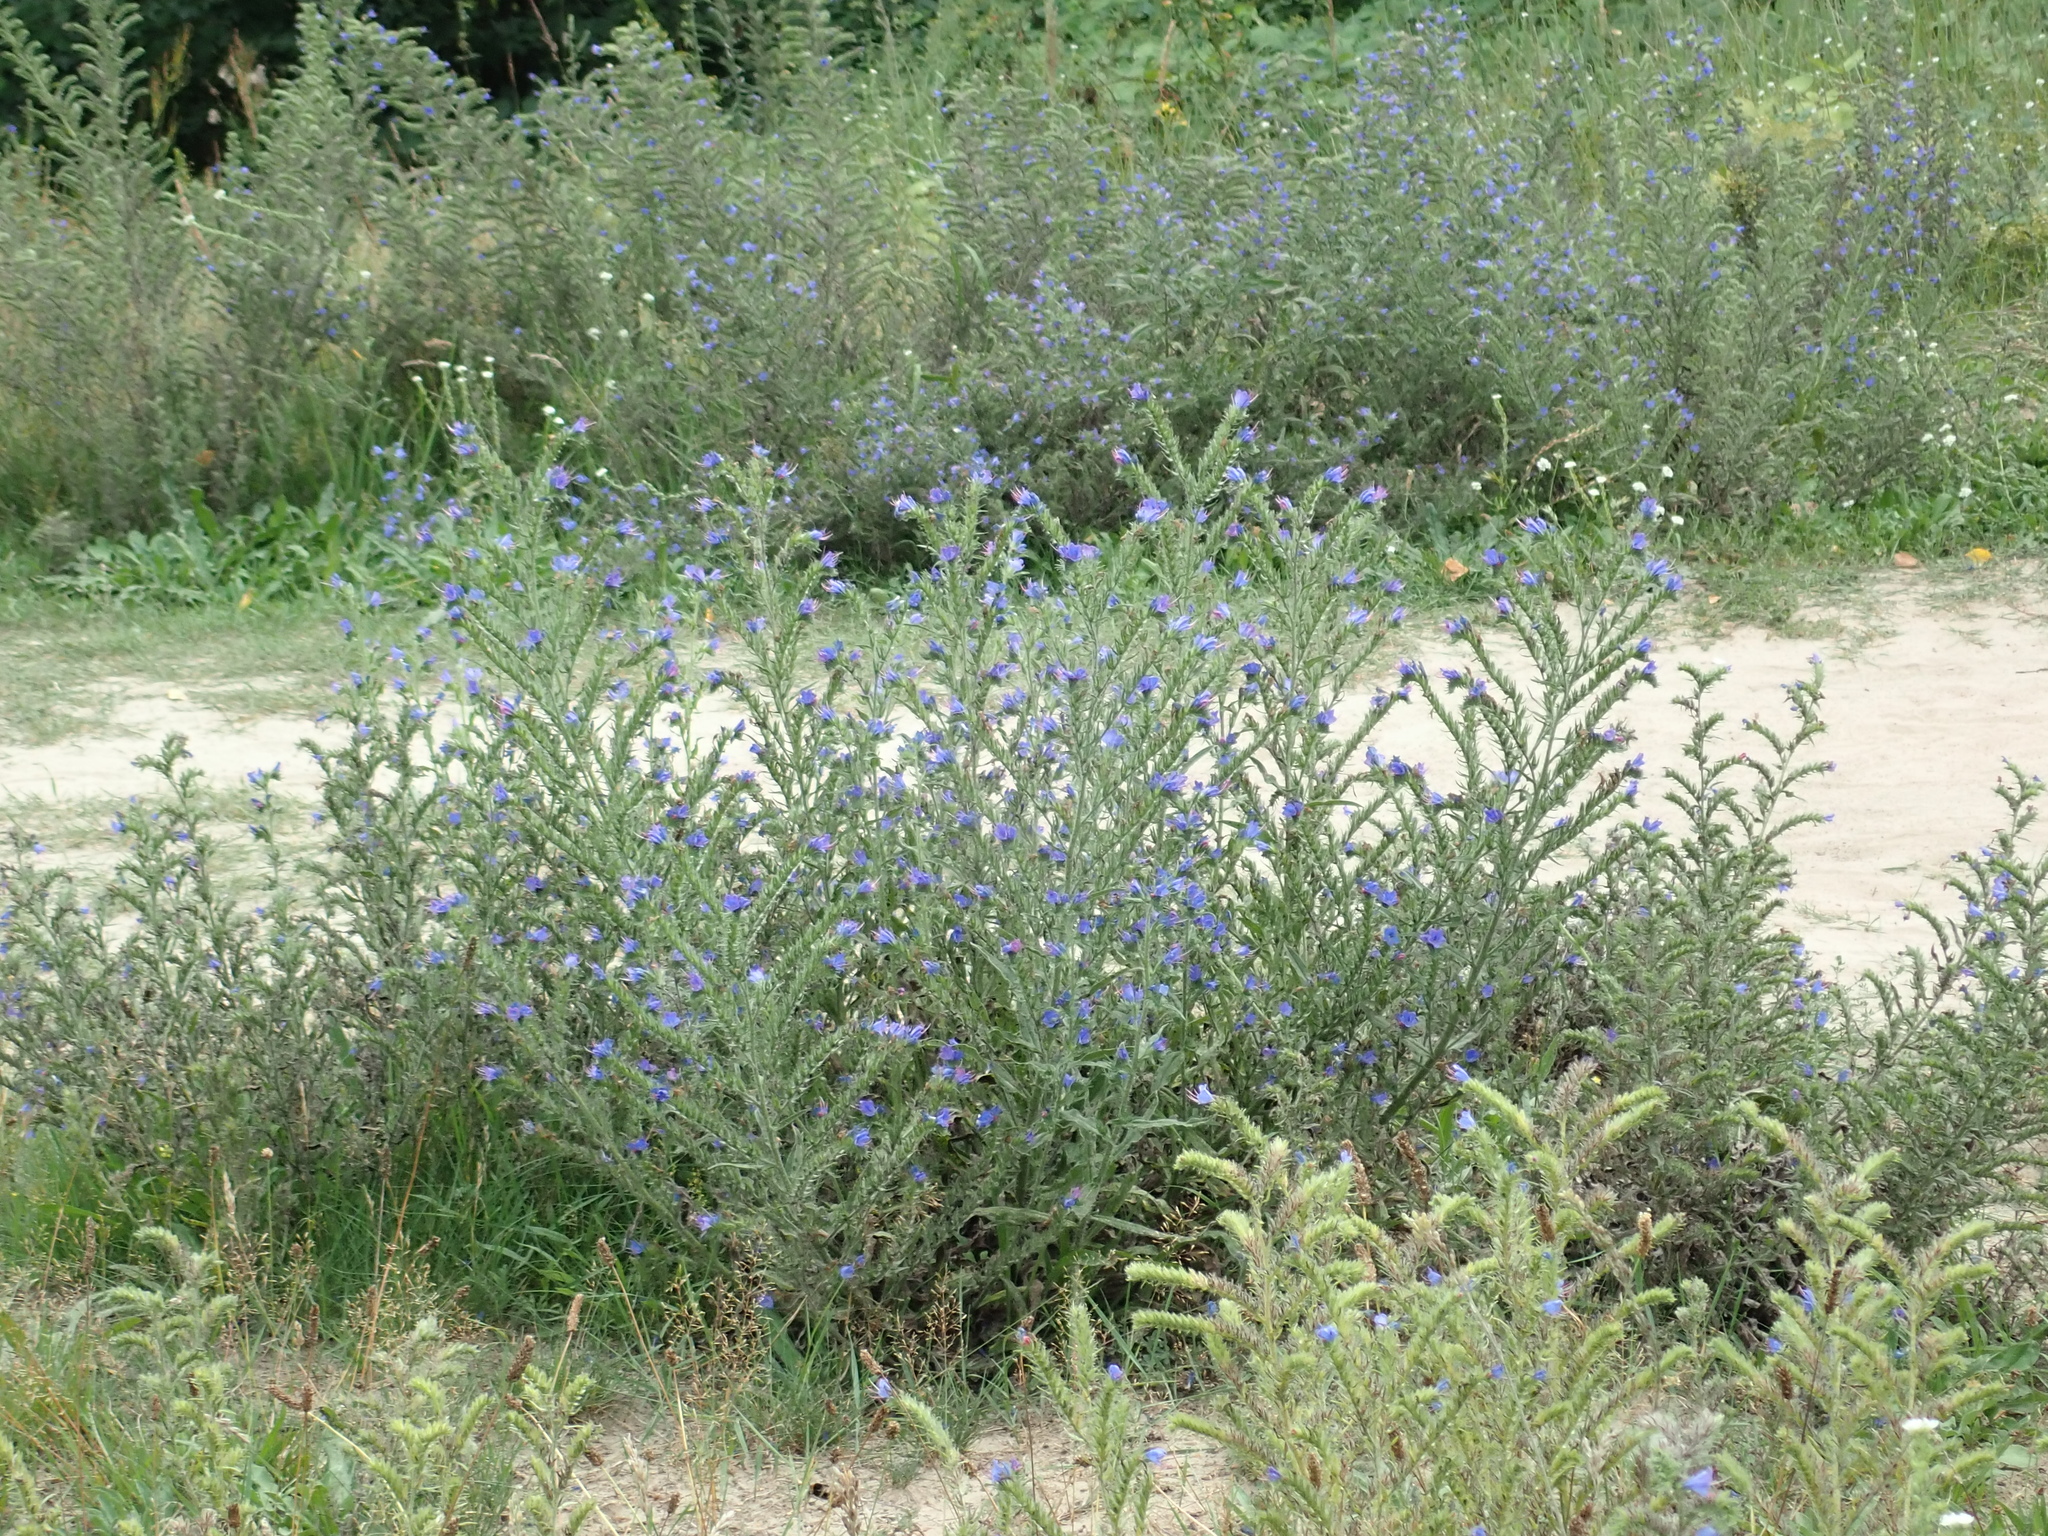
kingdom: Plantae
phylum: Tracheophyta
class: Magnoliopsida
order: Boraginales
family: Boraginaceae
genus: Echium
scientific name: Echium vulgare
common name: Common viper's bugloss
